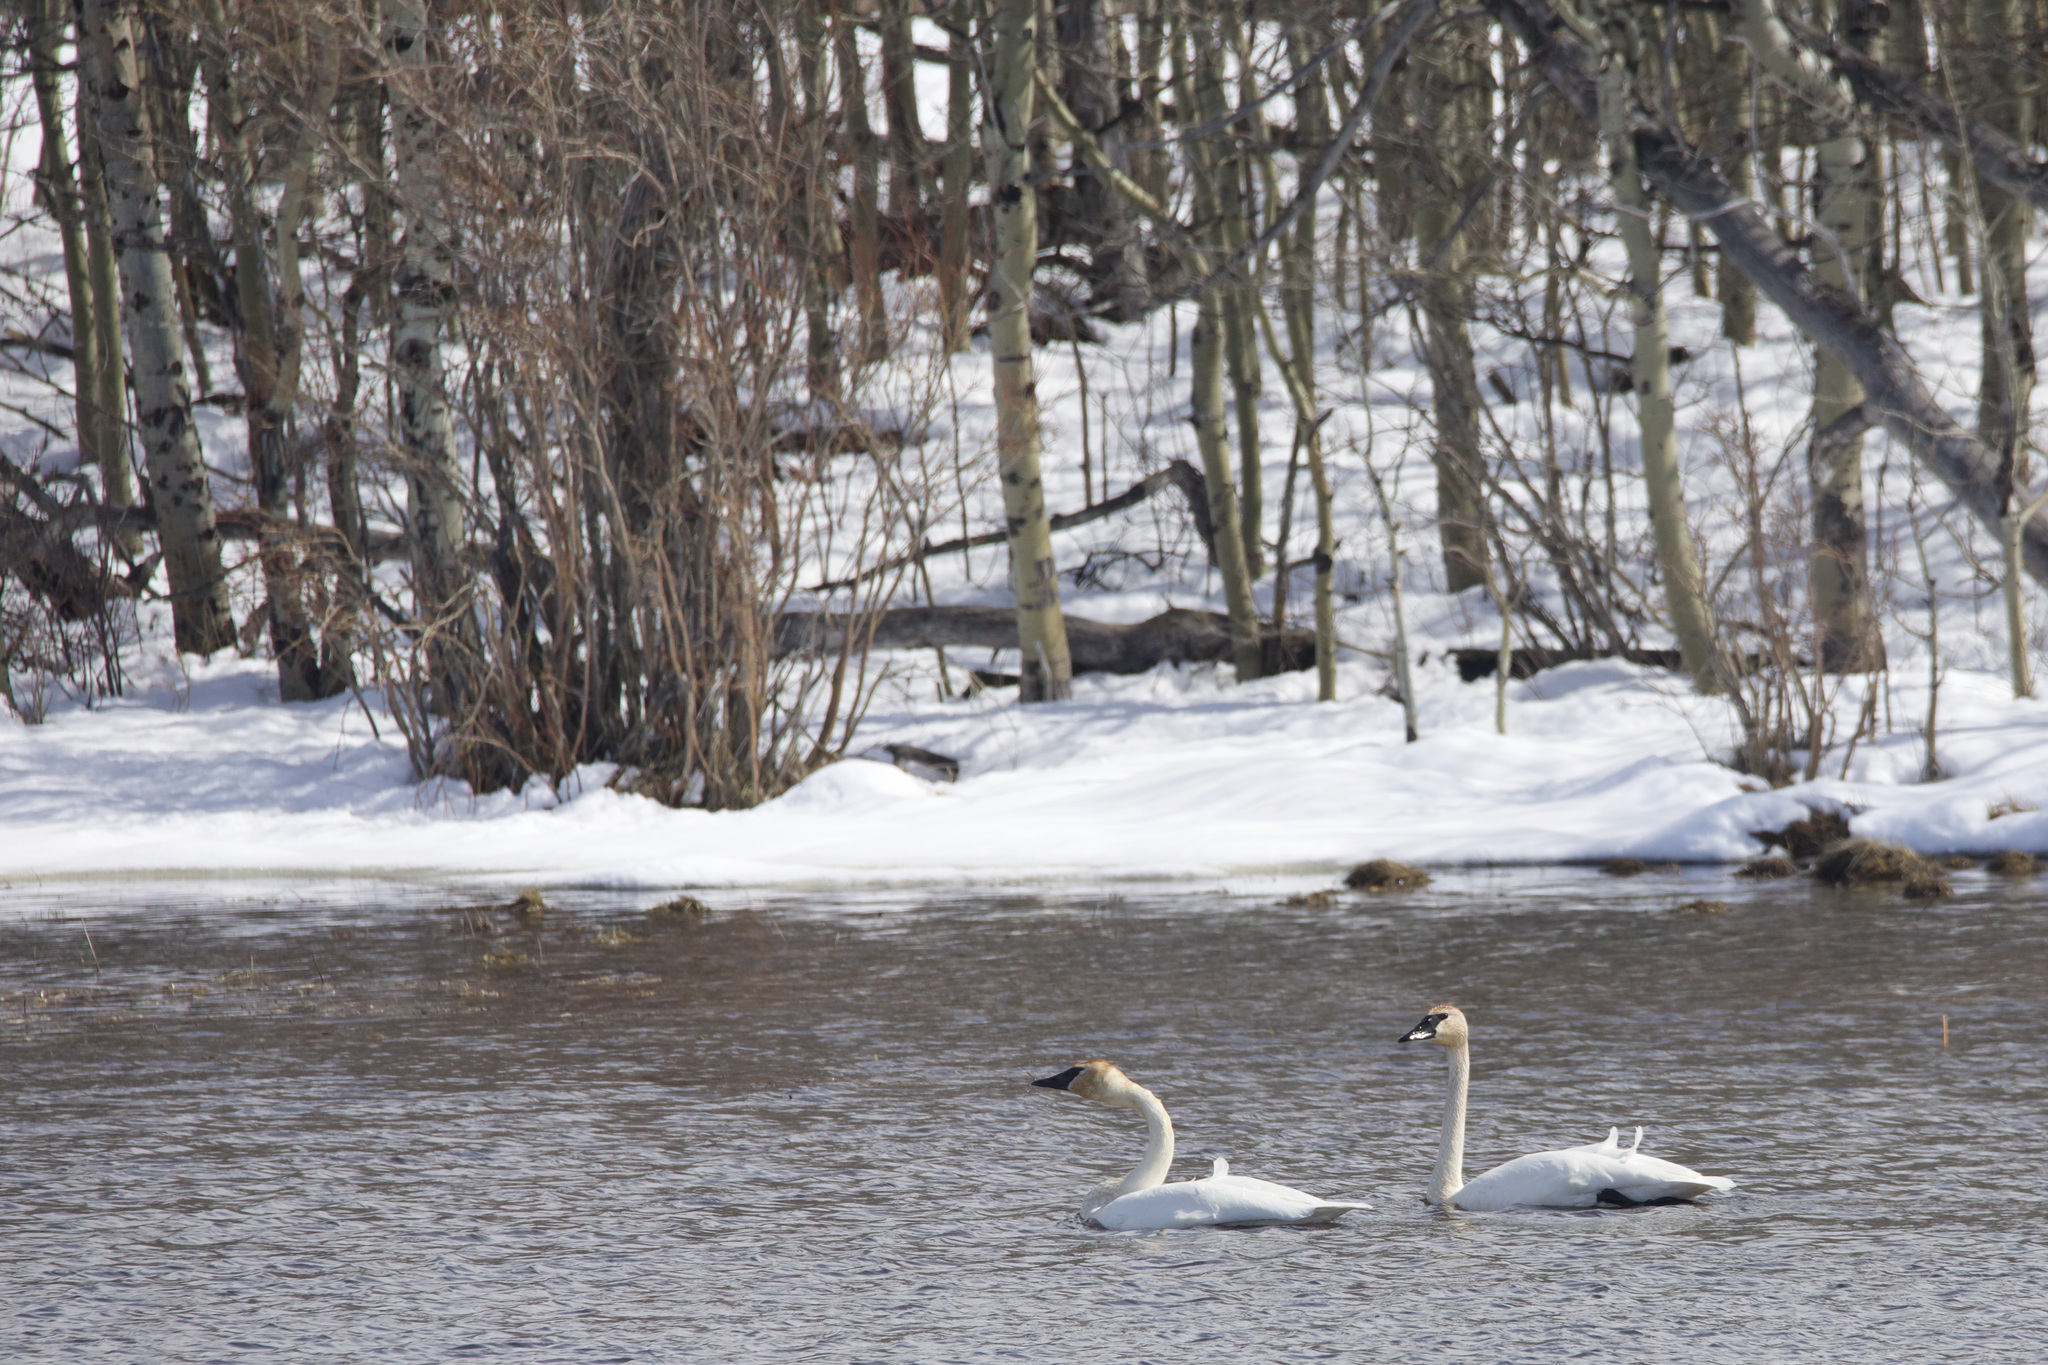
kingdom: Animalia
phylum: Chordata
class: Aves
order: Anseriformes
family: Anatidae
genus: Cygnus
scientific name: Cygnus buccinator
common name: Trumpeter swan
